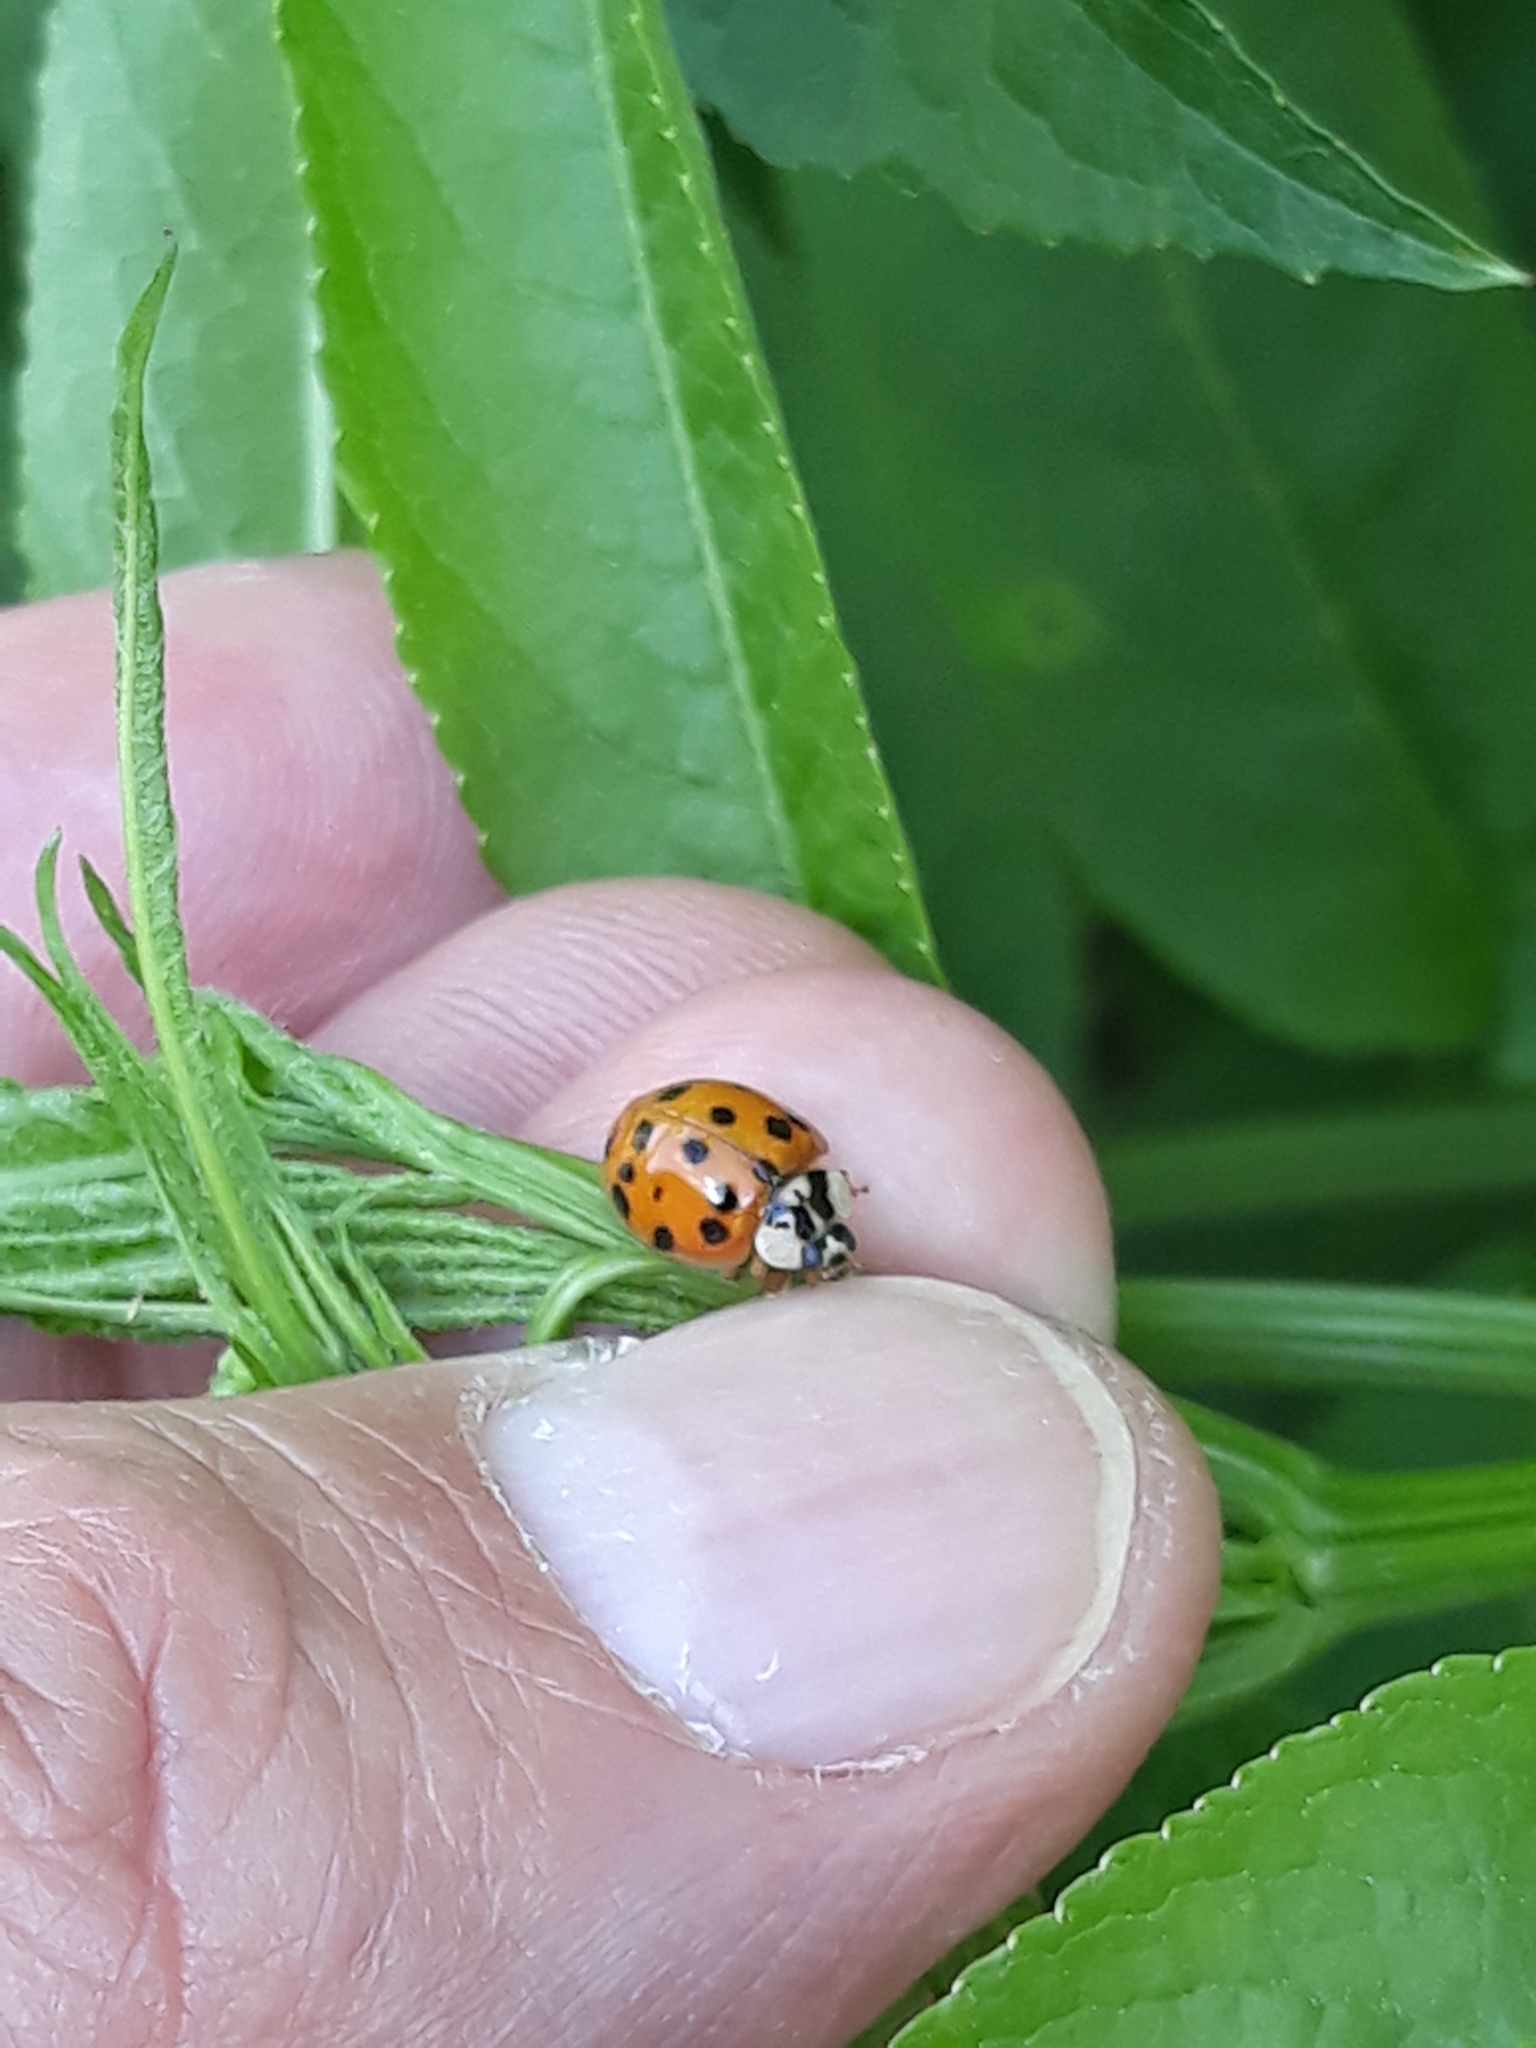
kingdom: Animalia
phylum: Arthropoda
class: Insecta
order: Coleoptera
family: Coccinellidae
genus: Harmonia
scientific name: Harmonia axyridis
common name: Harlequin ladybird
